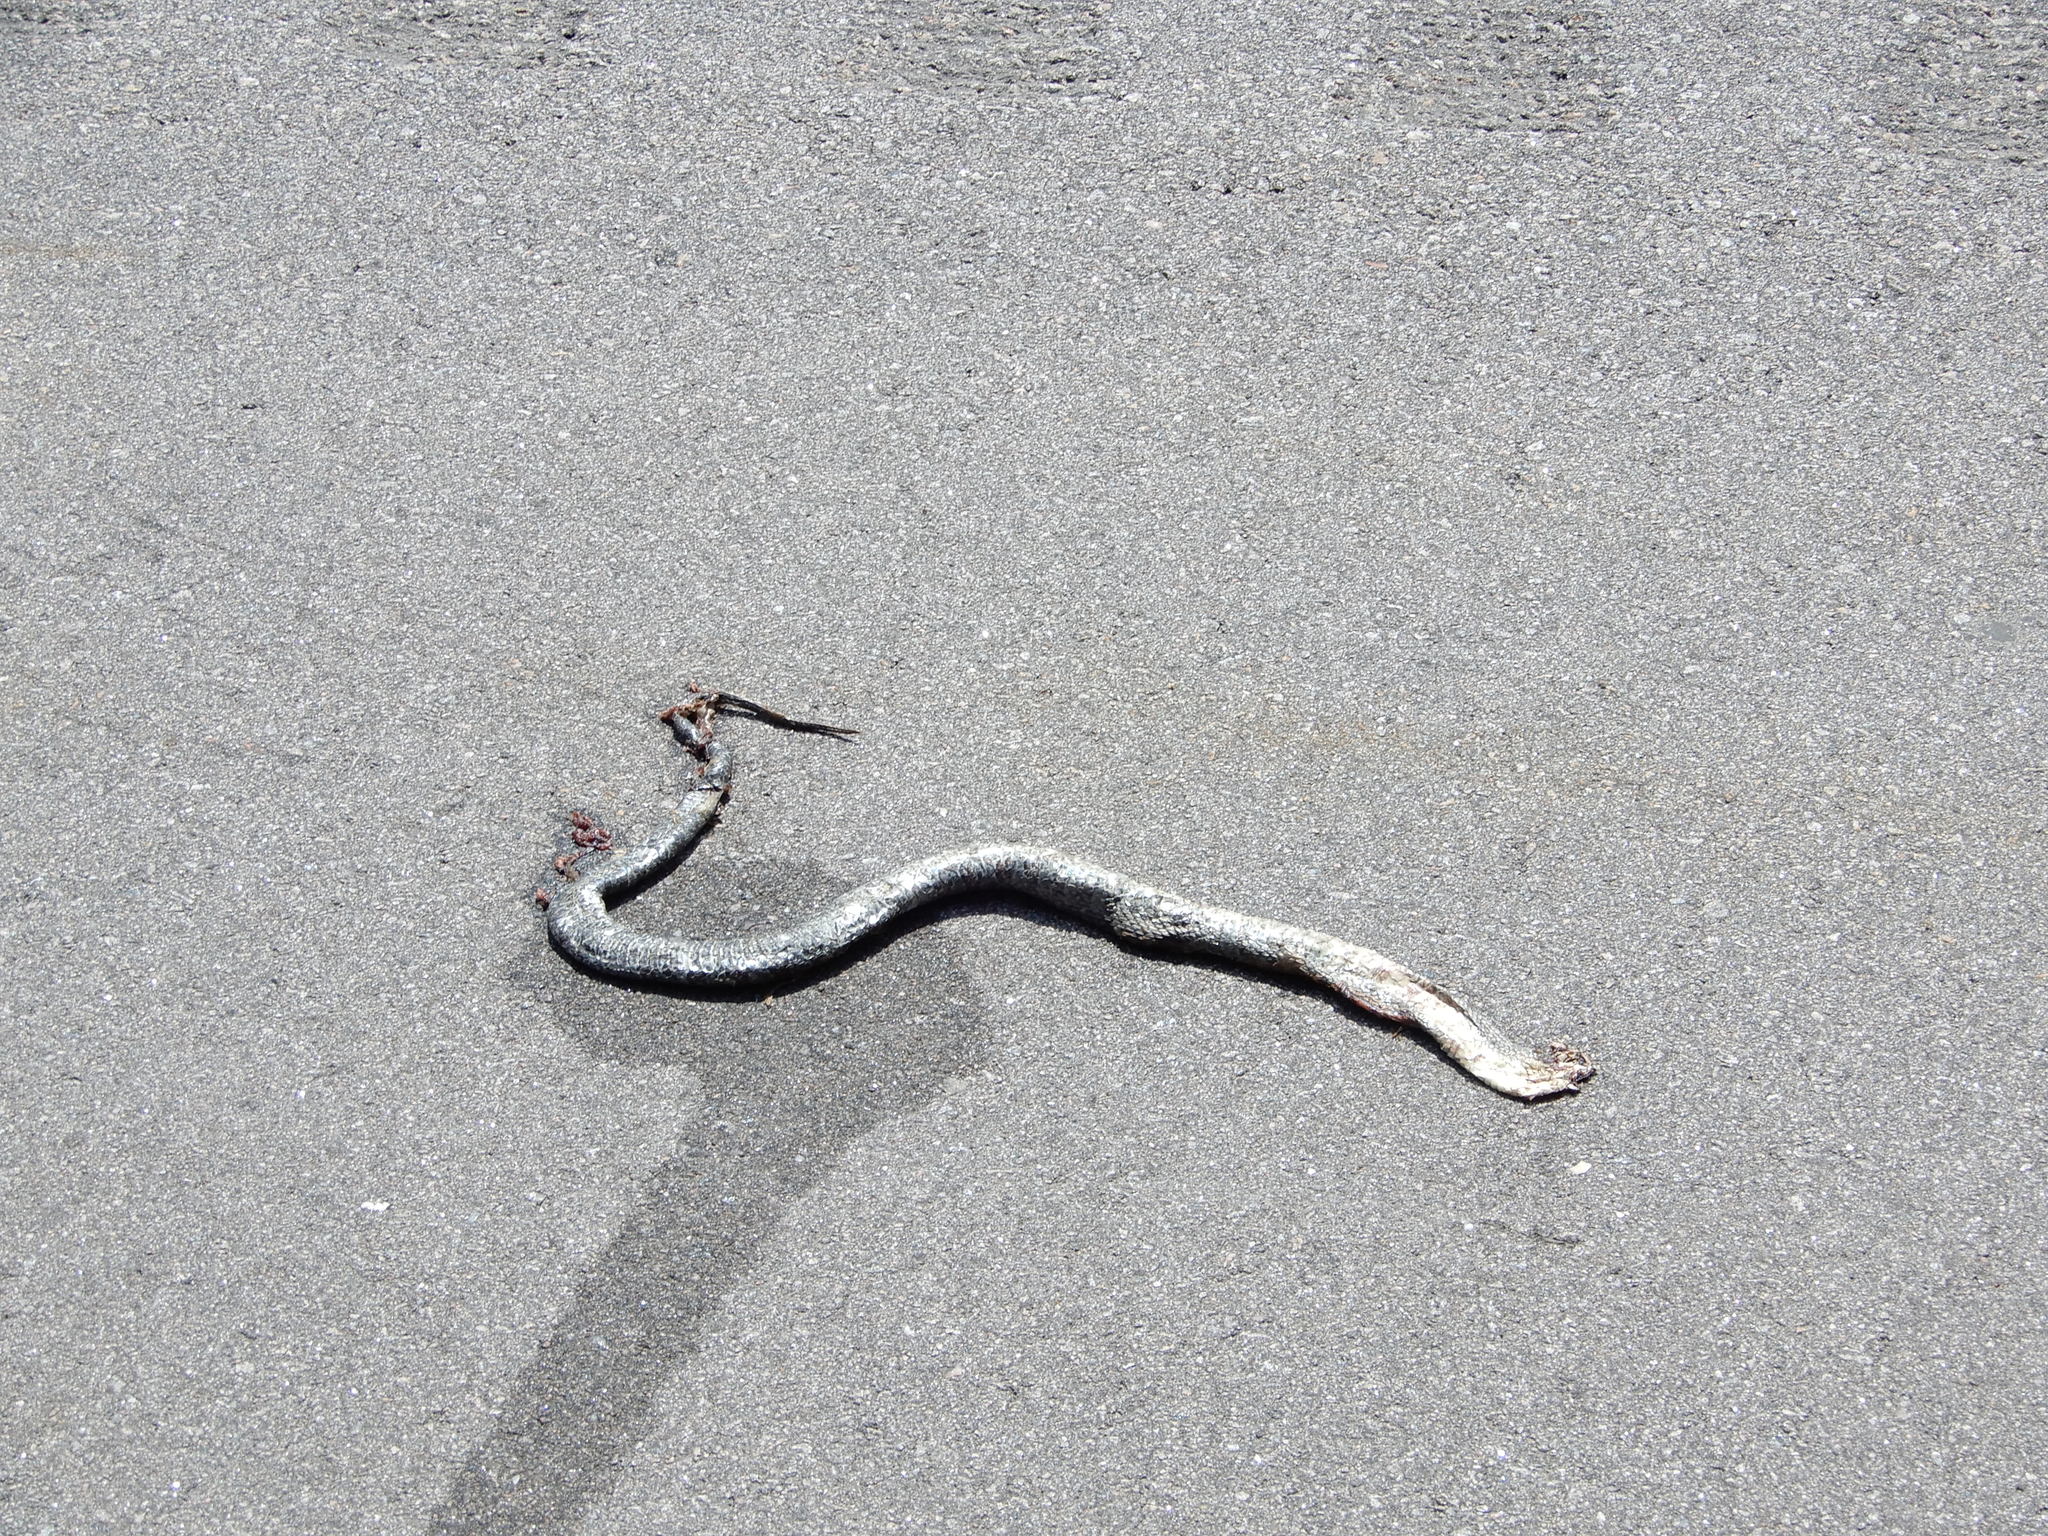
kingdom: Animalia
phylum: Chordata
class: Squamata
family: Colubridae
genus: Nerodia
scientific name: Nerodia sipedon
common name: Northern water snake
